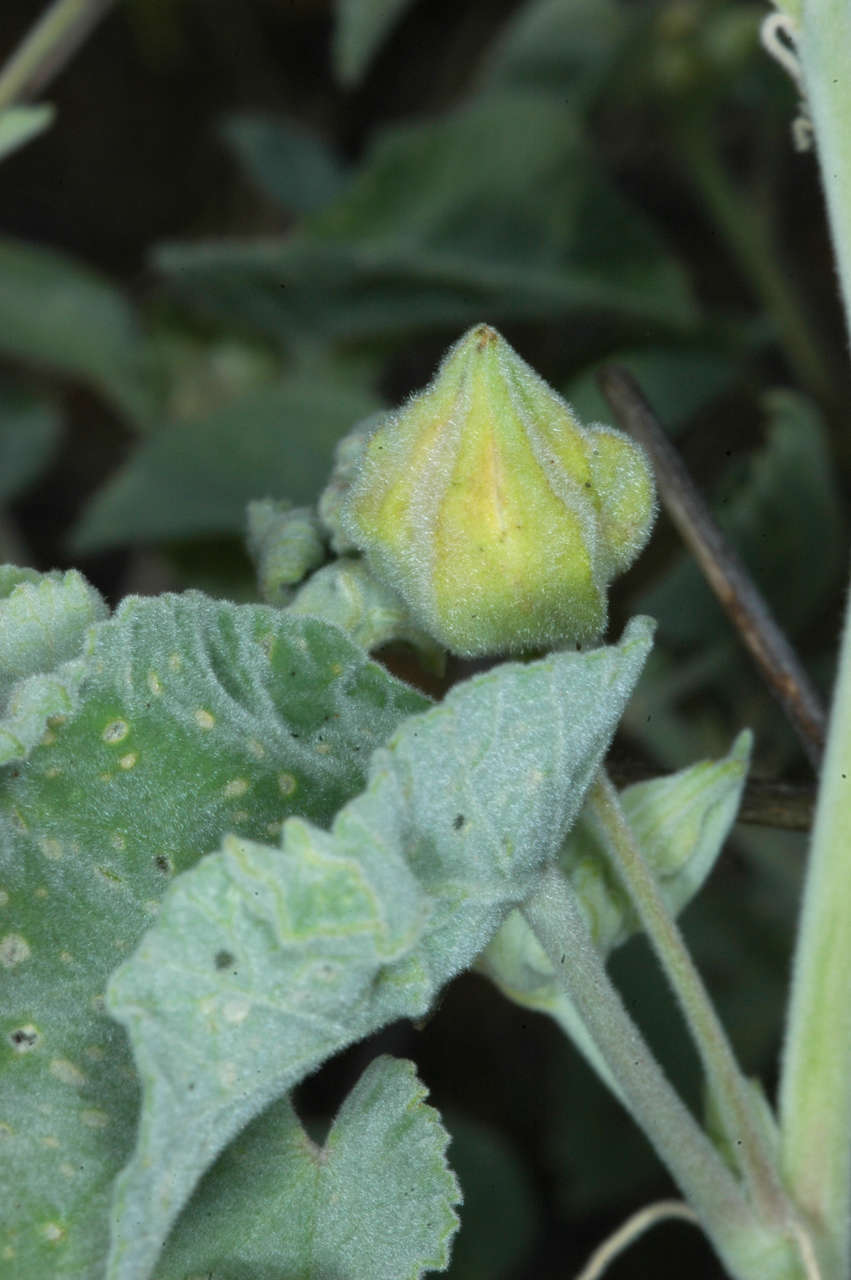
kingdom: Plantae
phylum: Tracheophyta
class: Magnoliopsida
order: Malvales
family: Malvaceae
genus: Abutilon
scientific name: Abutilon otocarpum
